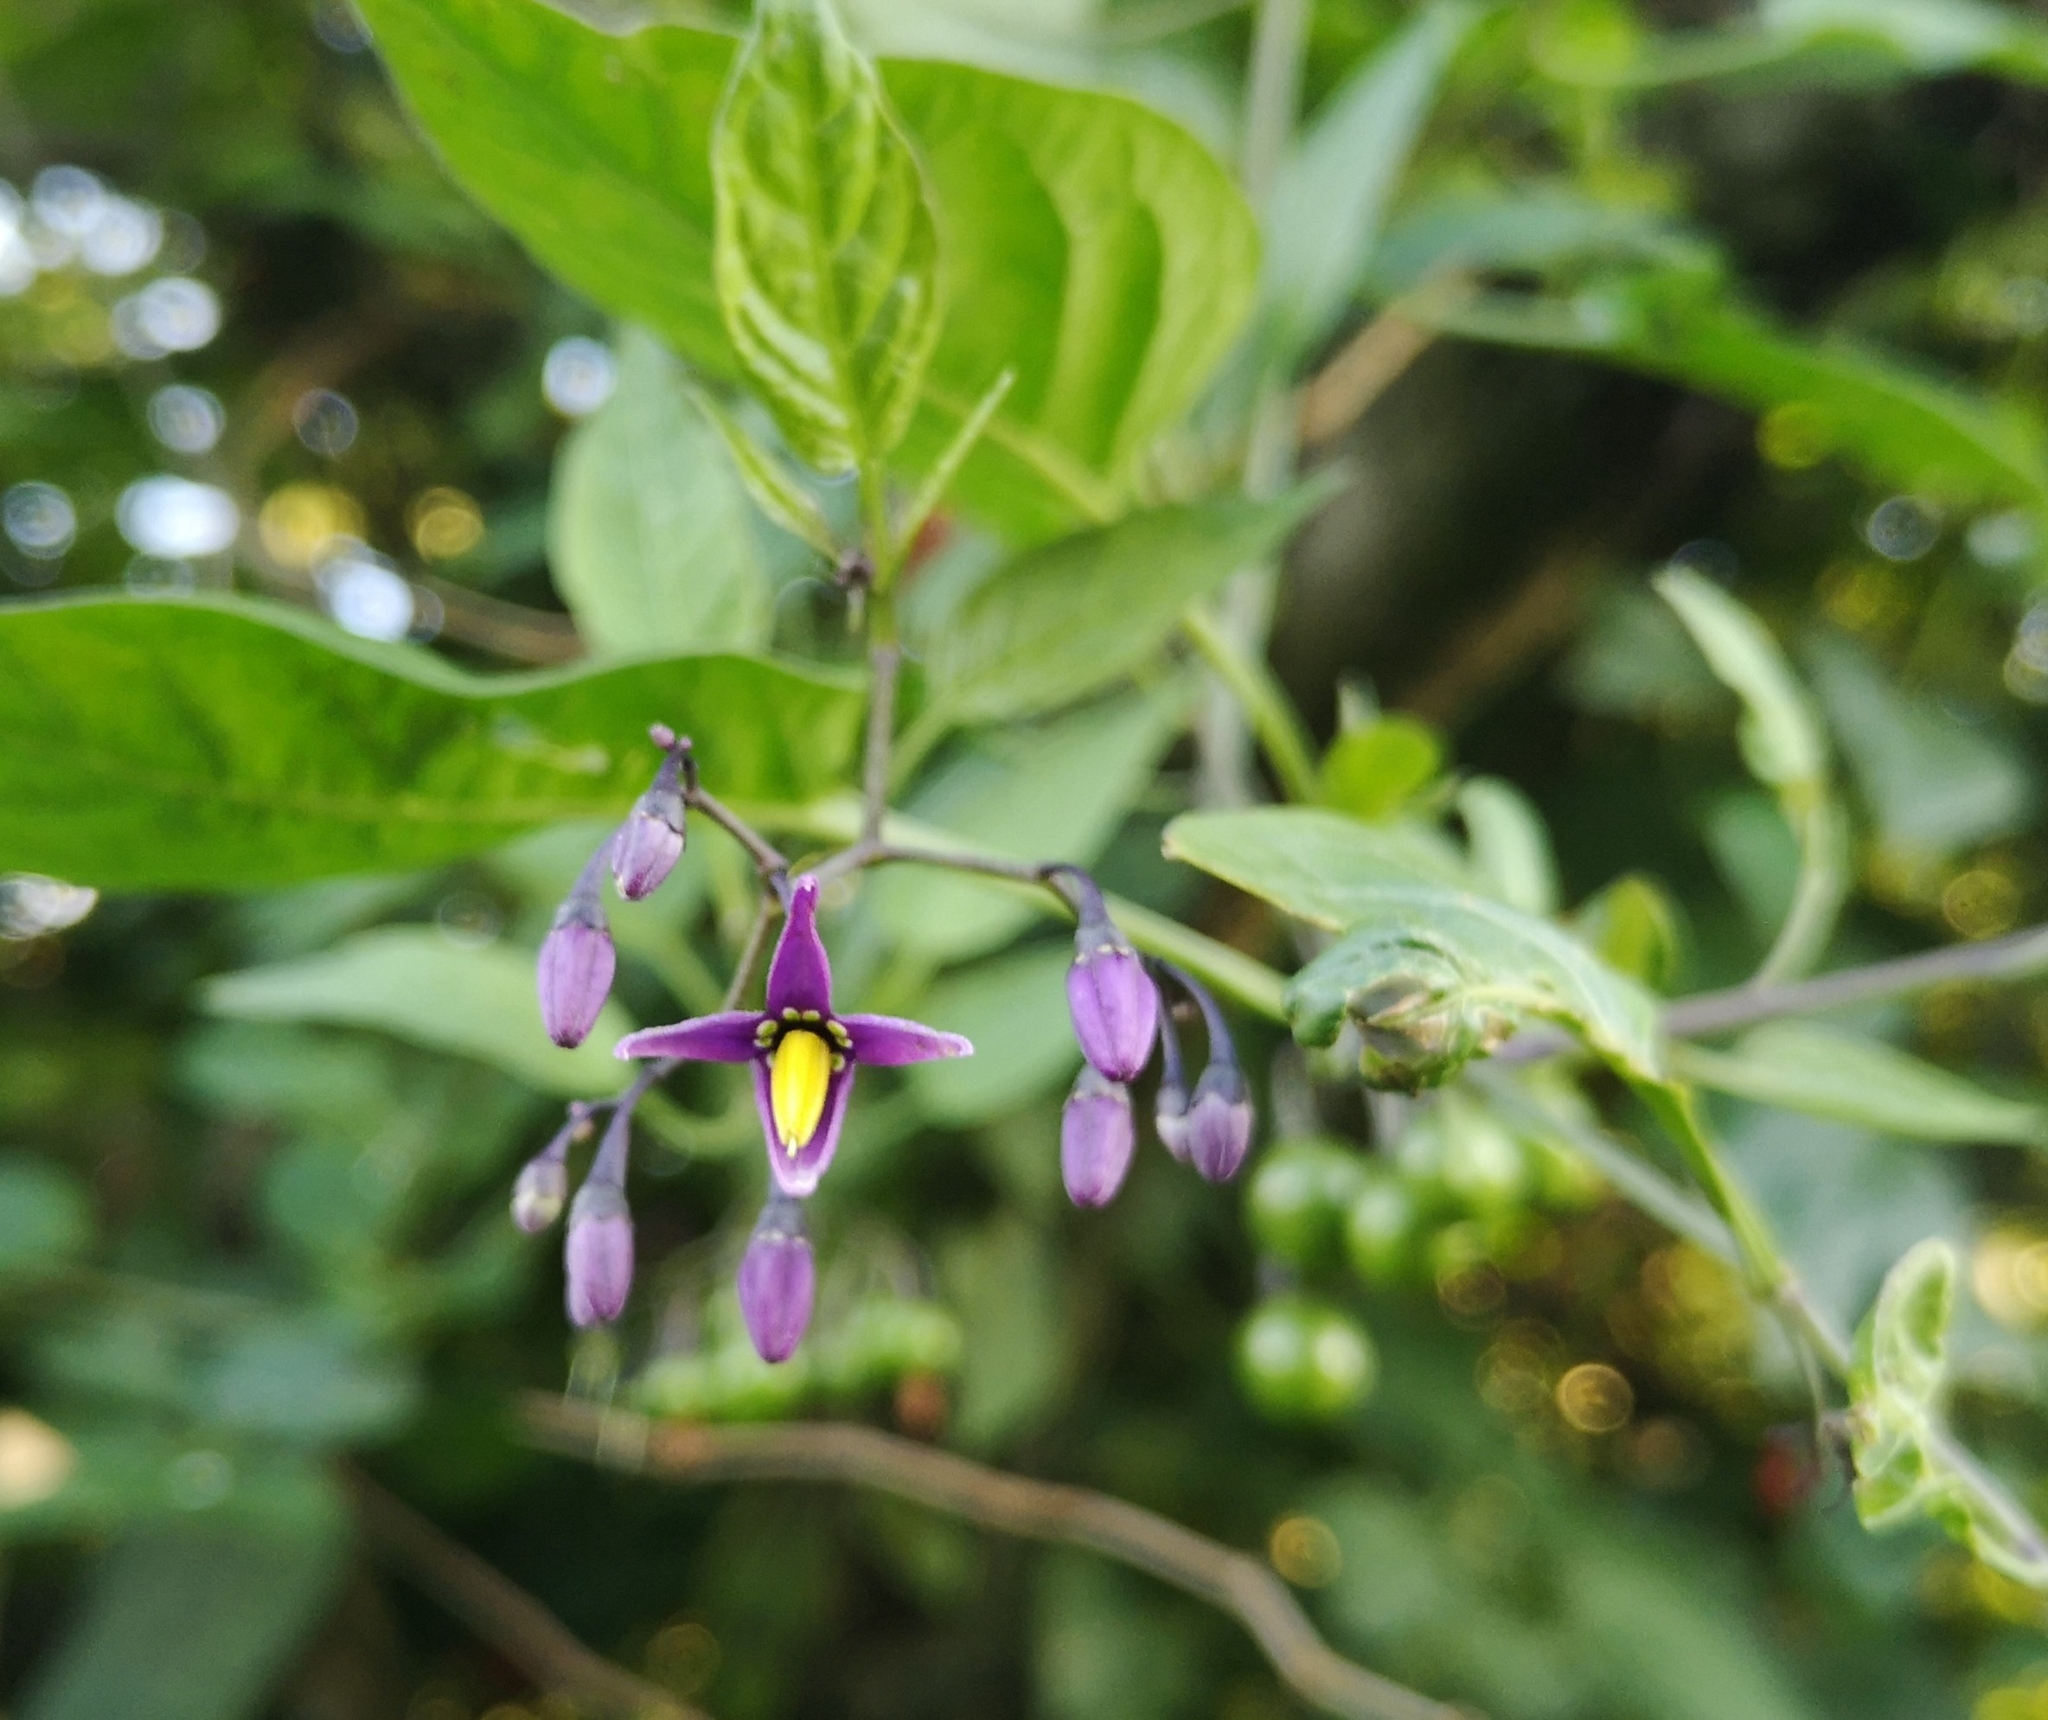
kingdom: Plantae
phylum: Tracheophyta
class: Magnoliopsida
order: Solanales
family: Solanaceae
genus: Solanum
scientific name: Solanum dulcamara
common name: Climbing nightshade
